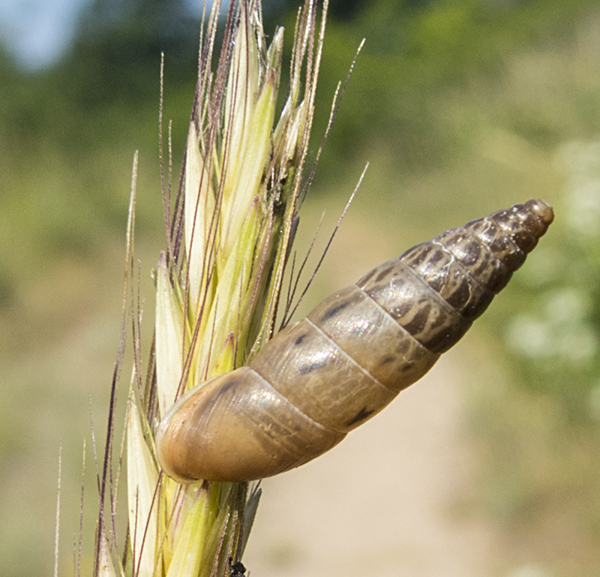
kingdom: Animalia
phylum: Mollusca
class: Gastropoda
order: Stylommatophora
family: Enidae
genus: Eubrephulus
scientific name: Eubrephulus bicallosus
